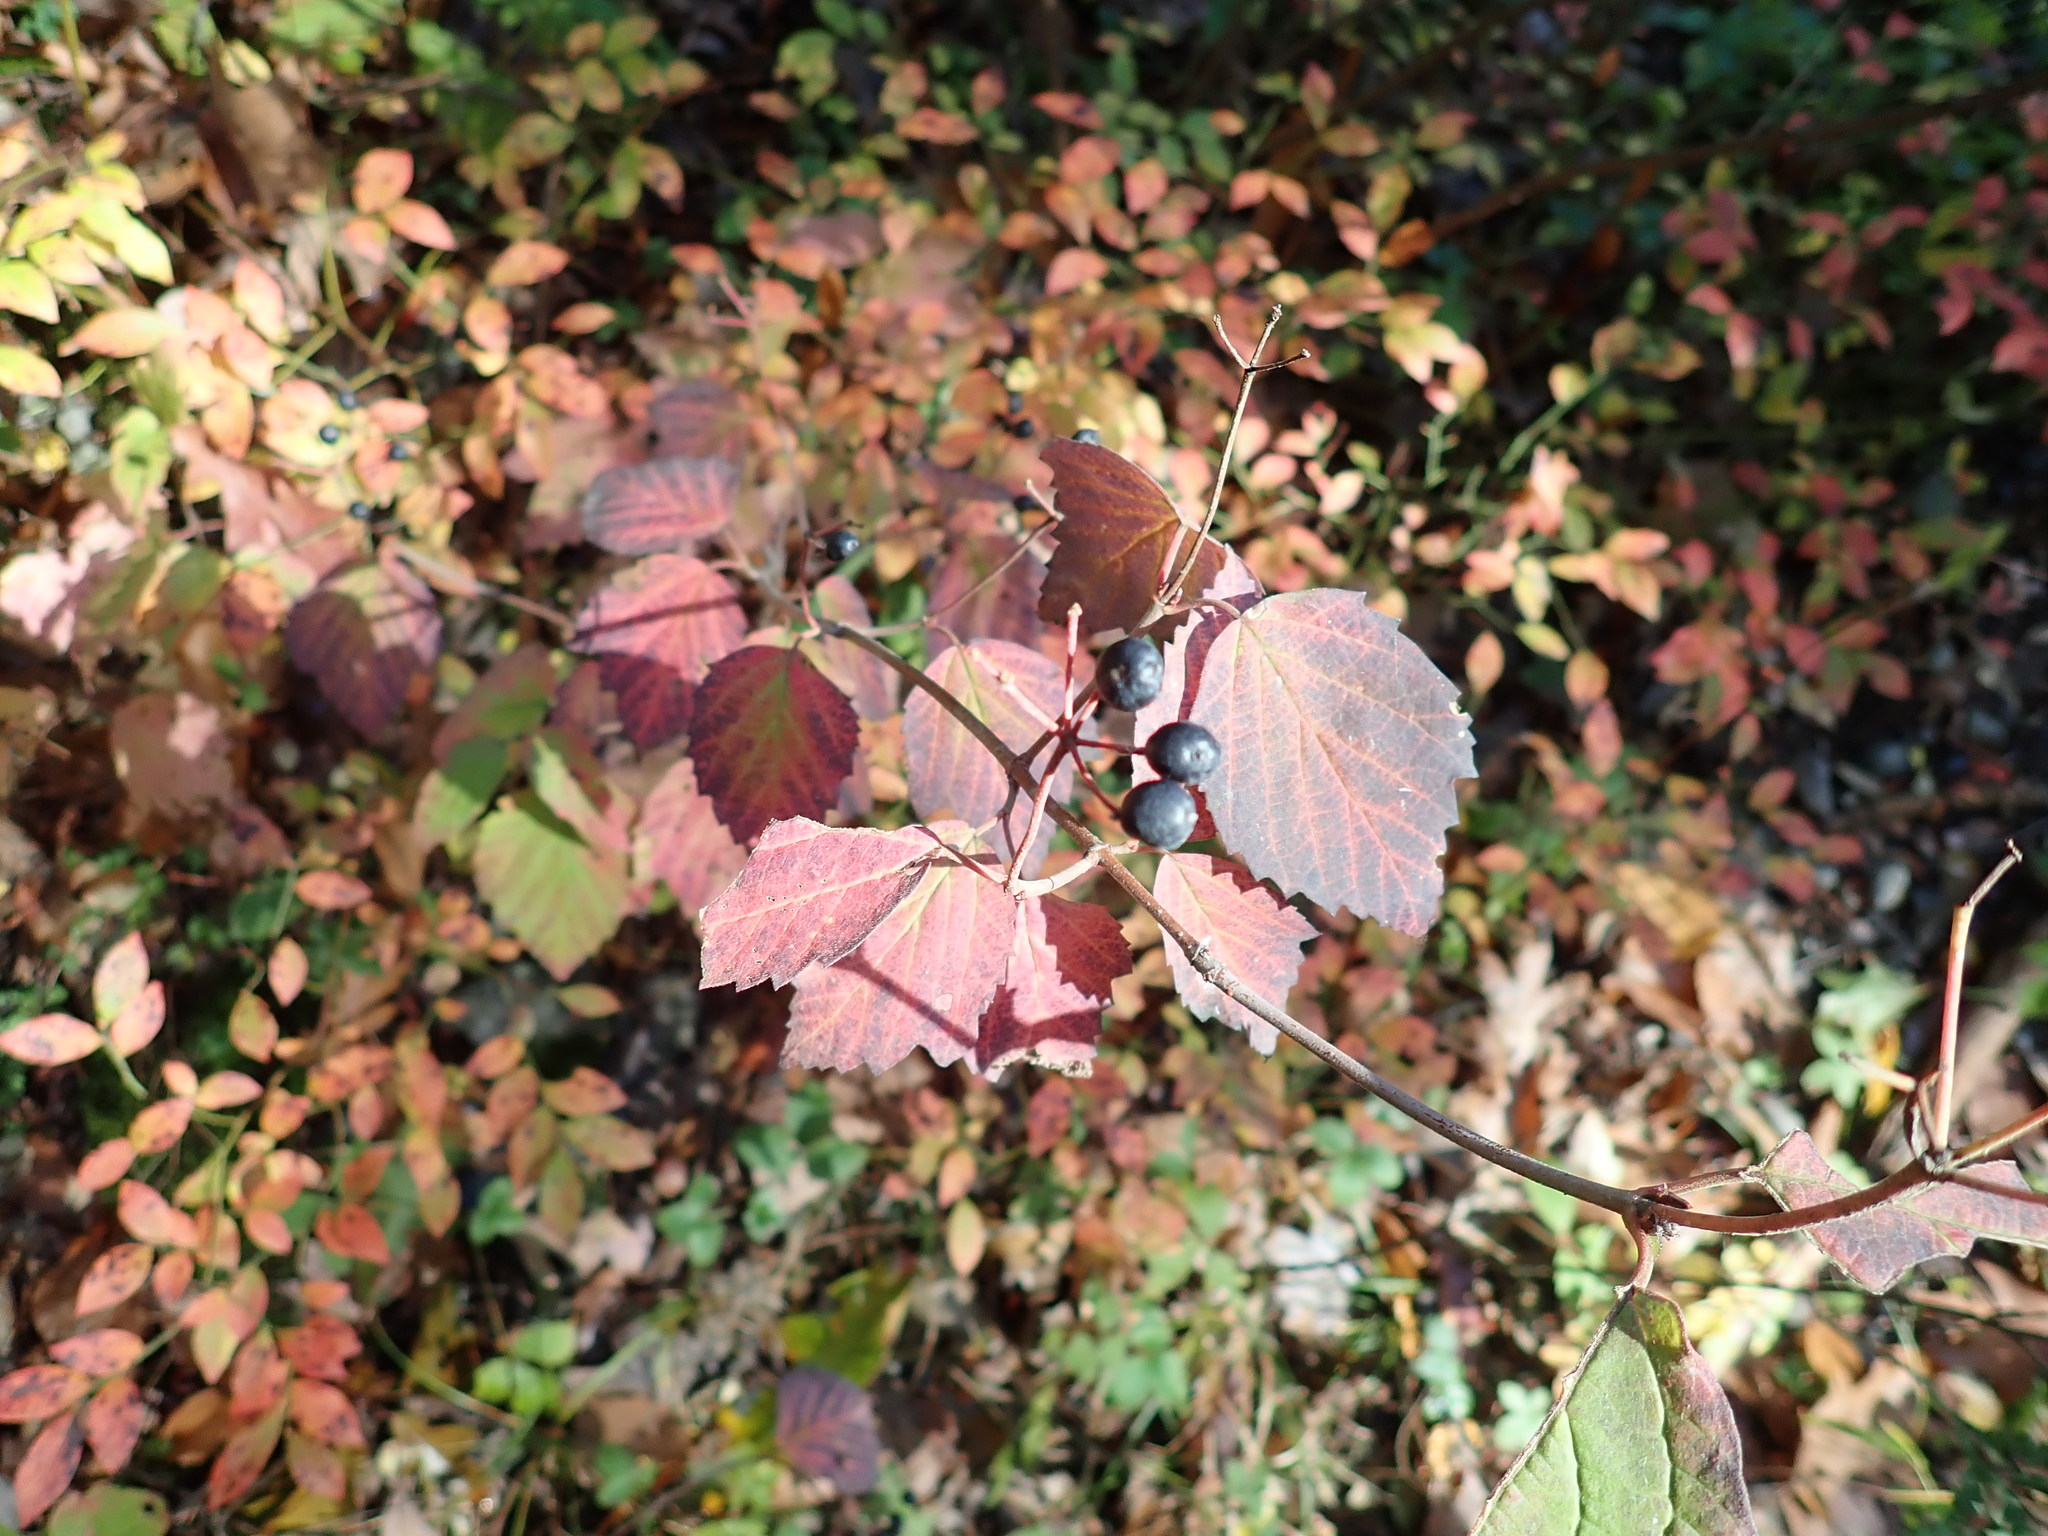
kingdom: Plantae
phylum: Tracheophyta
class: Magnoliopsida
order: Dipsacales
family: Viburnaceae
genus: Viburnum
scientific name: Viburnum acerifolium
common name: Dockmackie
